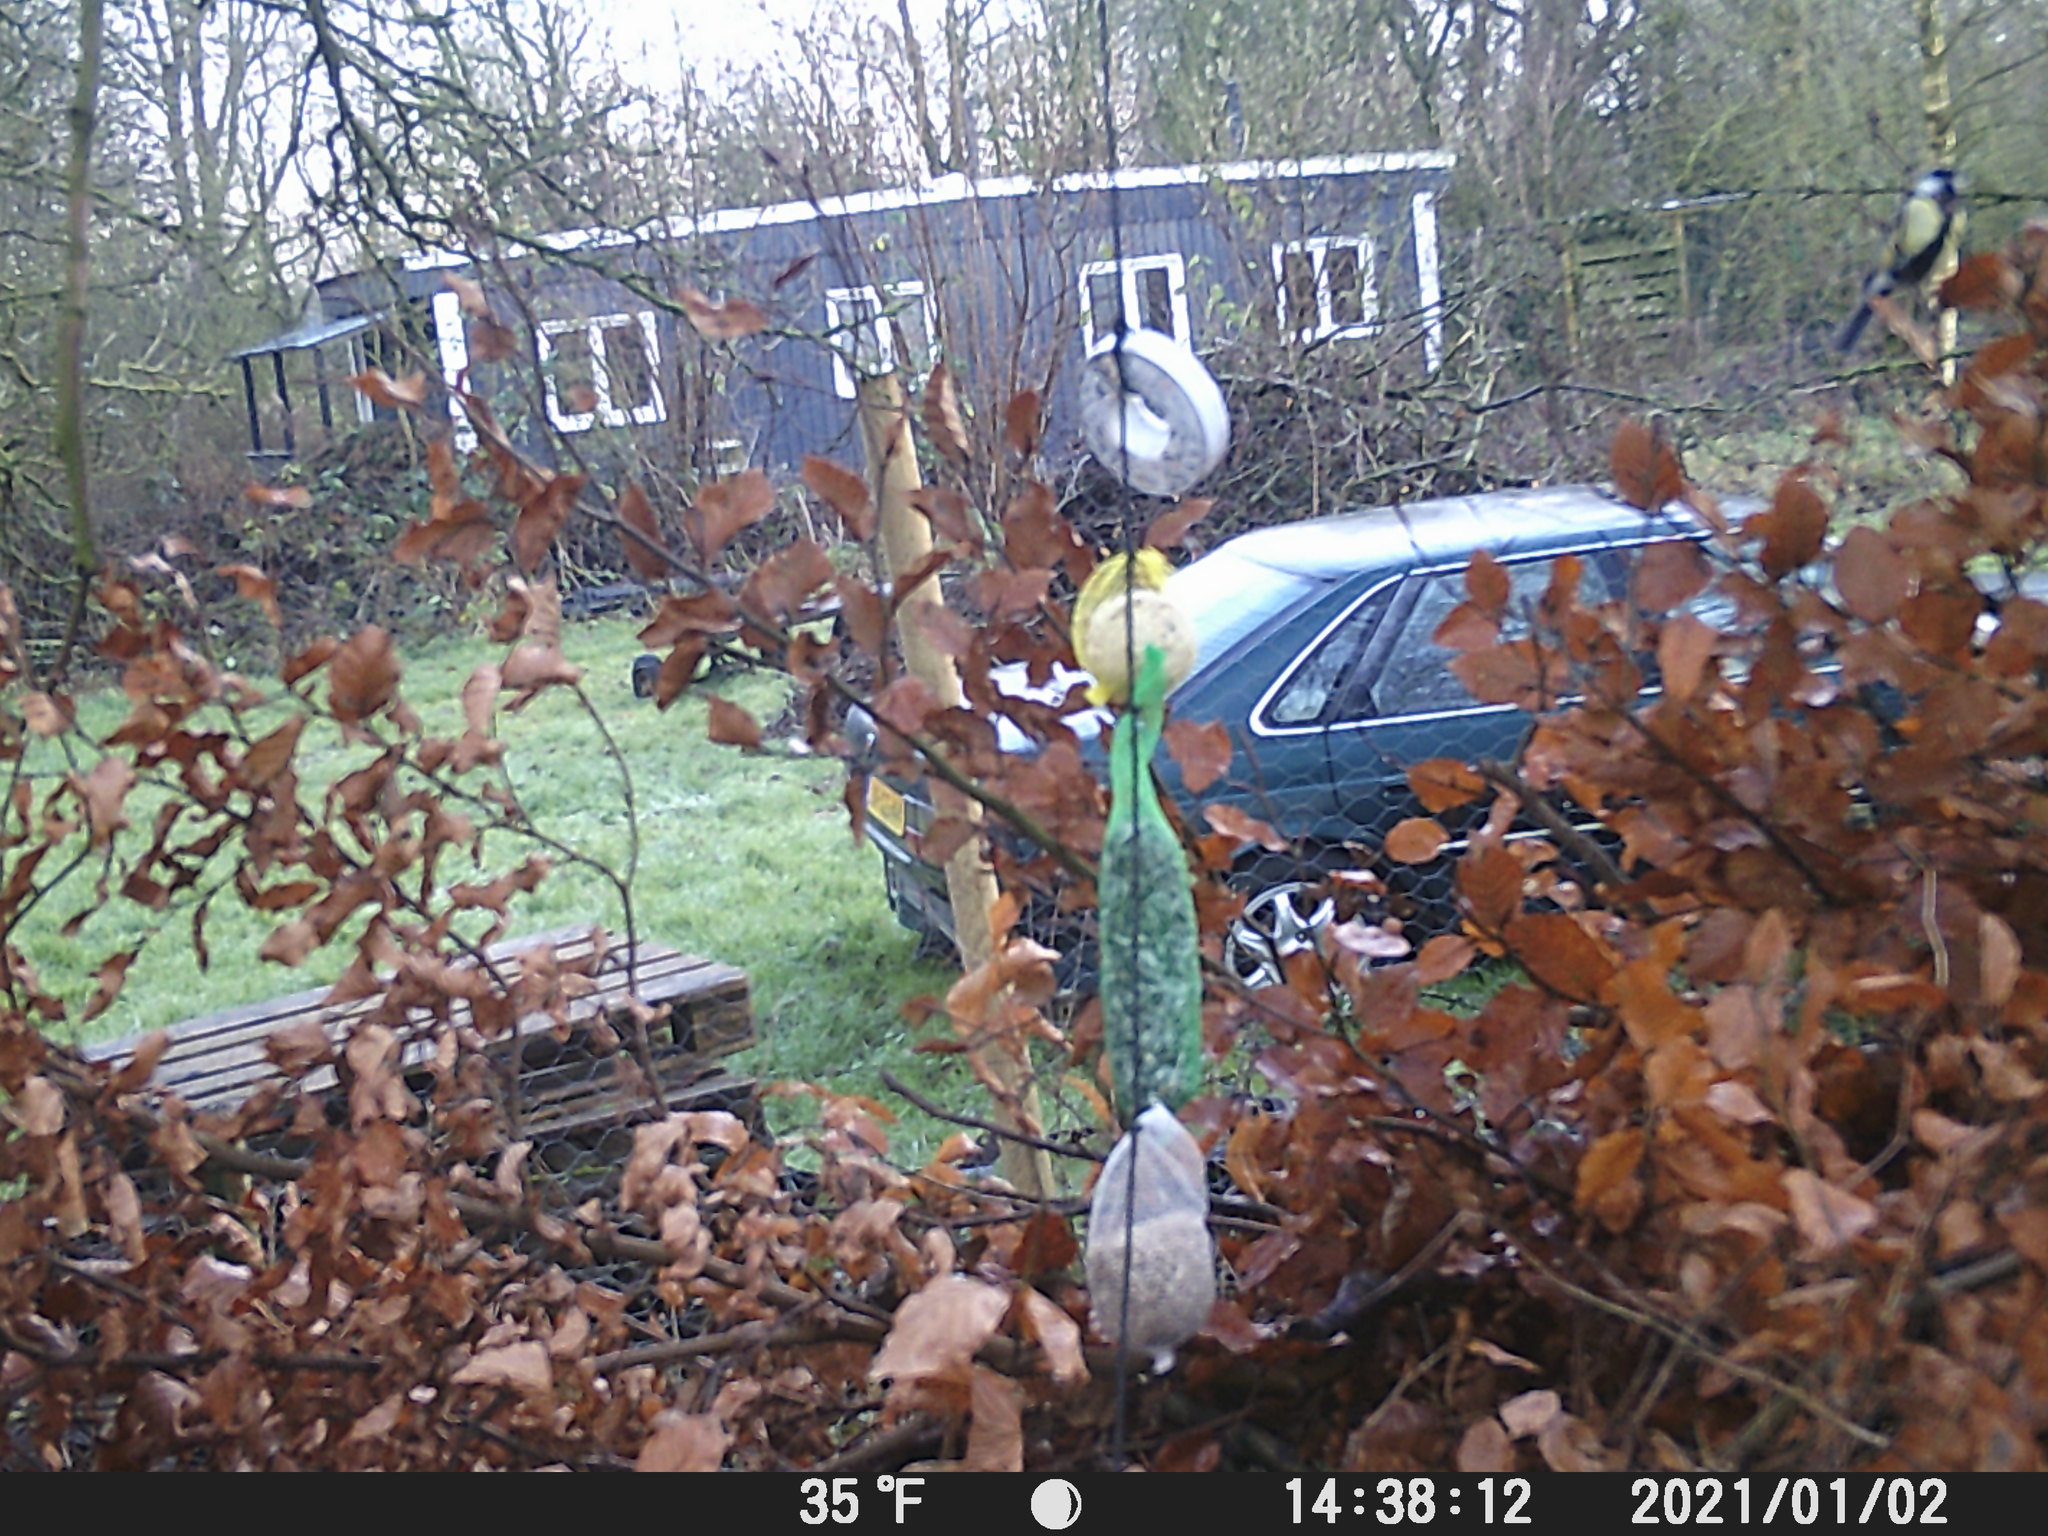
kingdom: Animalia
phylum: Chordata
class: Aves
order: Passeriformes
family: Paridae
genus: Parus
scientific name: Parus major
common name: Great tit
